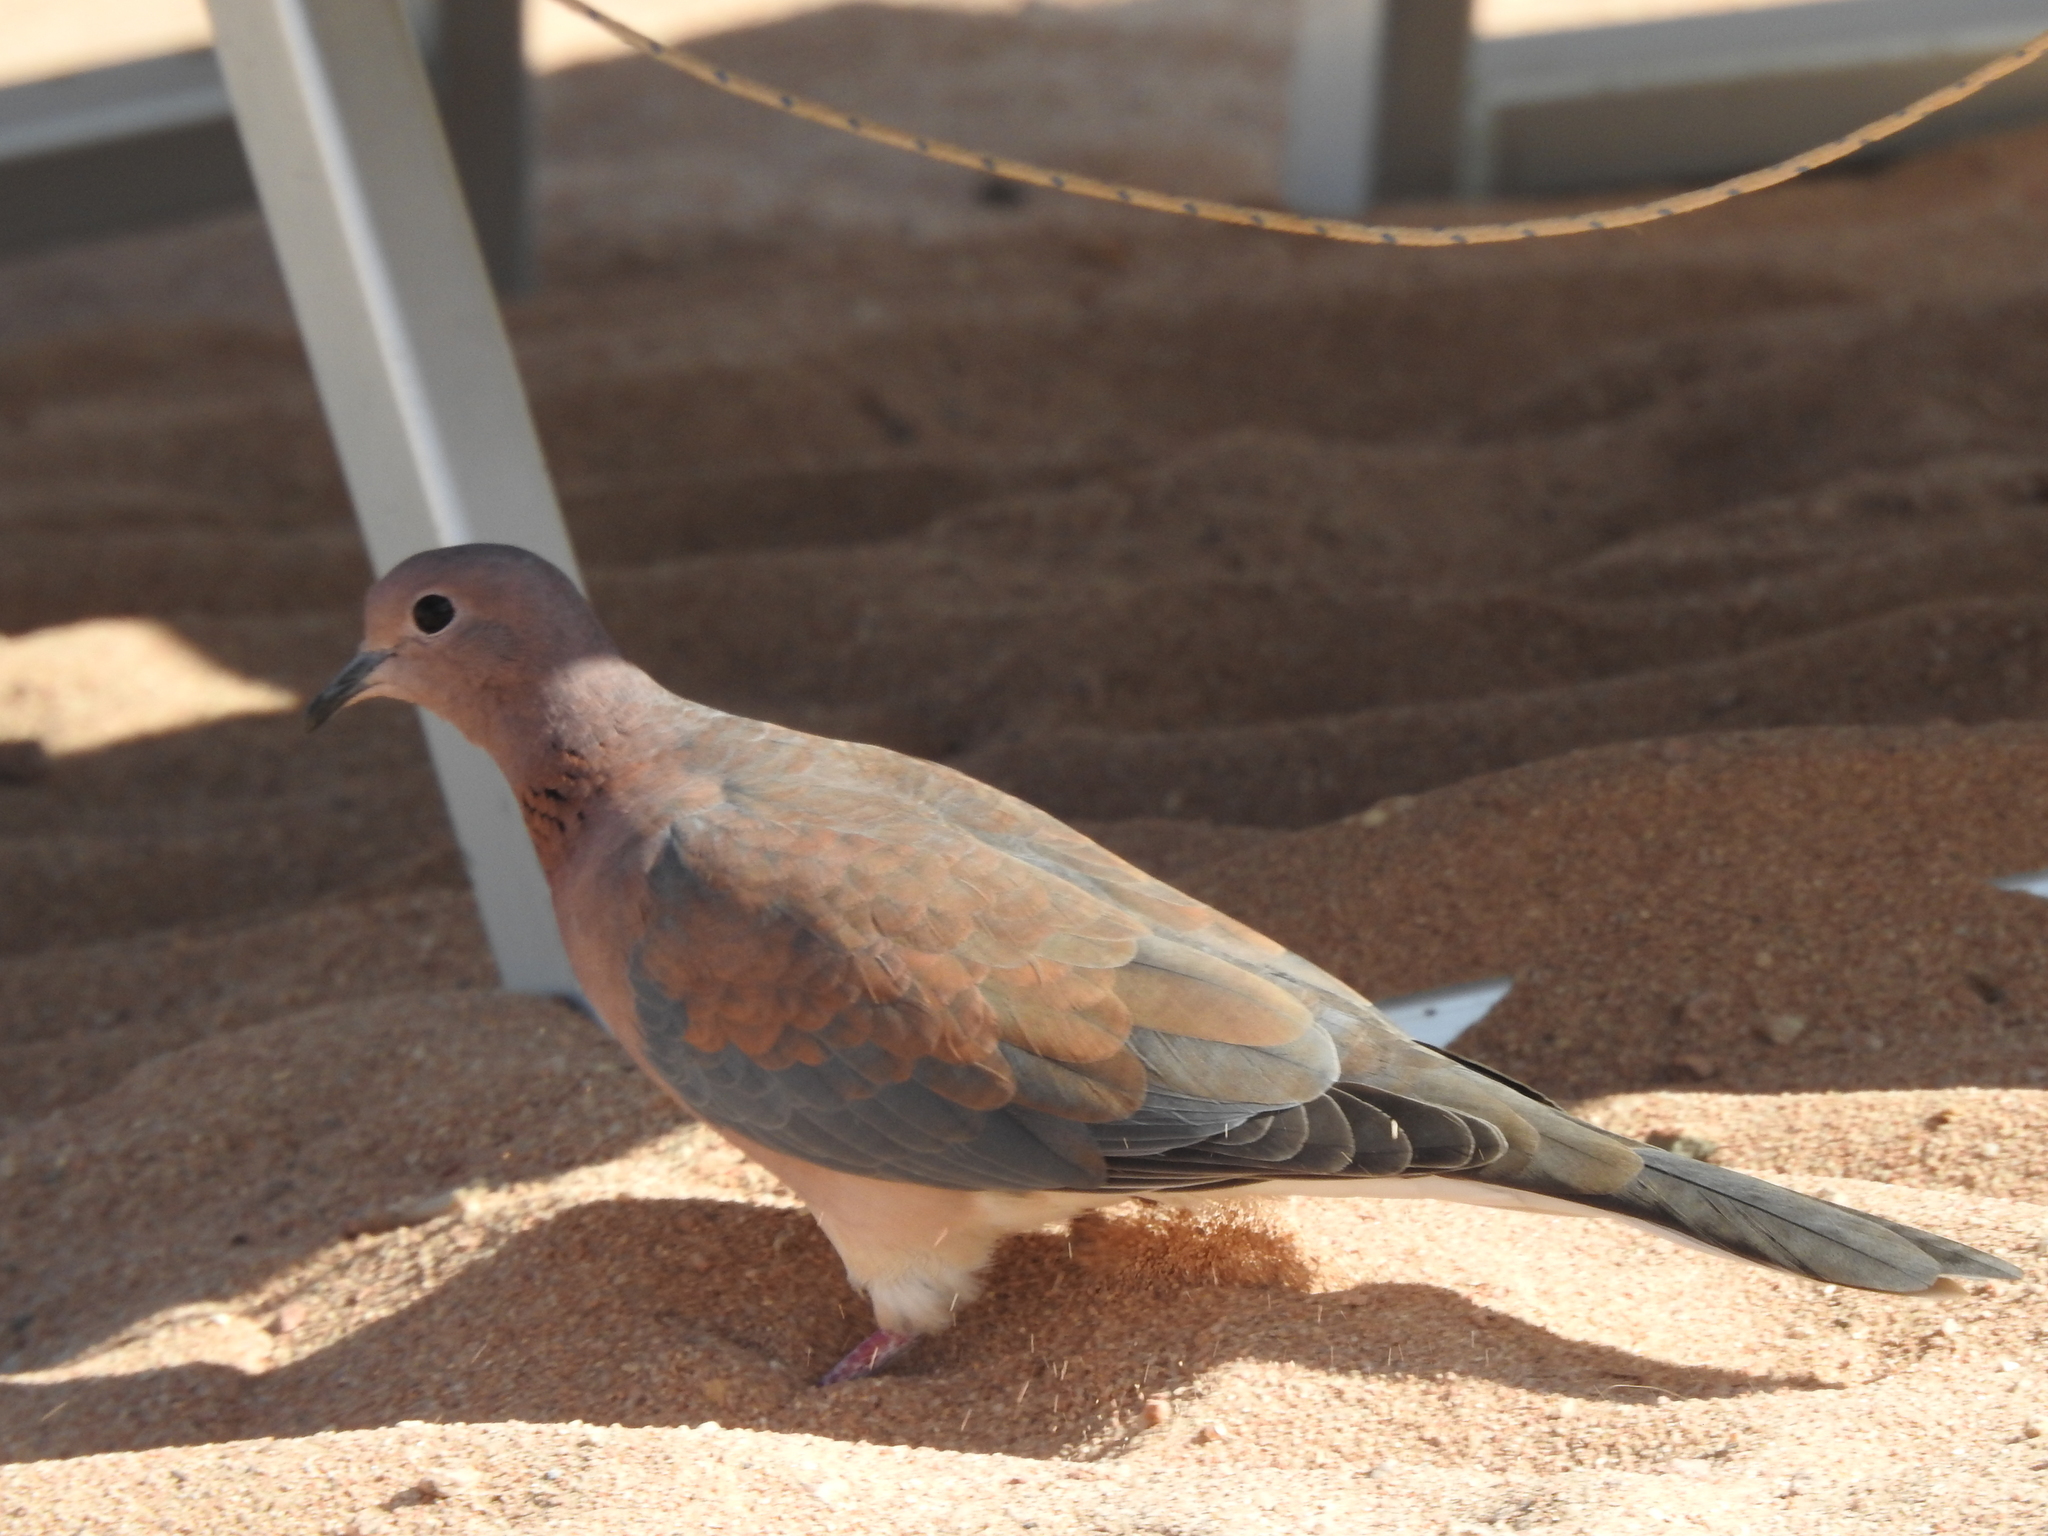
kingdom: Animalia
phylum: Chordata
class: Aves
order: Columbiformes
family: Columbidae
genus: Spilopelia
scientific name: Spilopelia senegalensis
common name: Laughing dove
